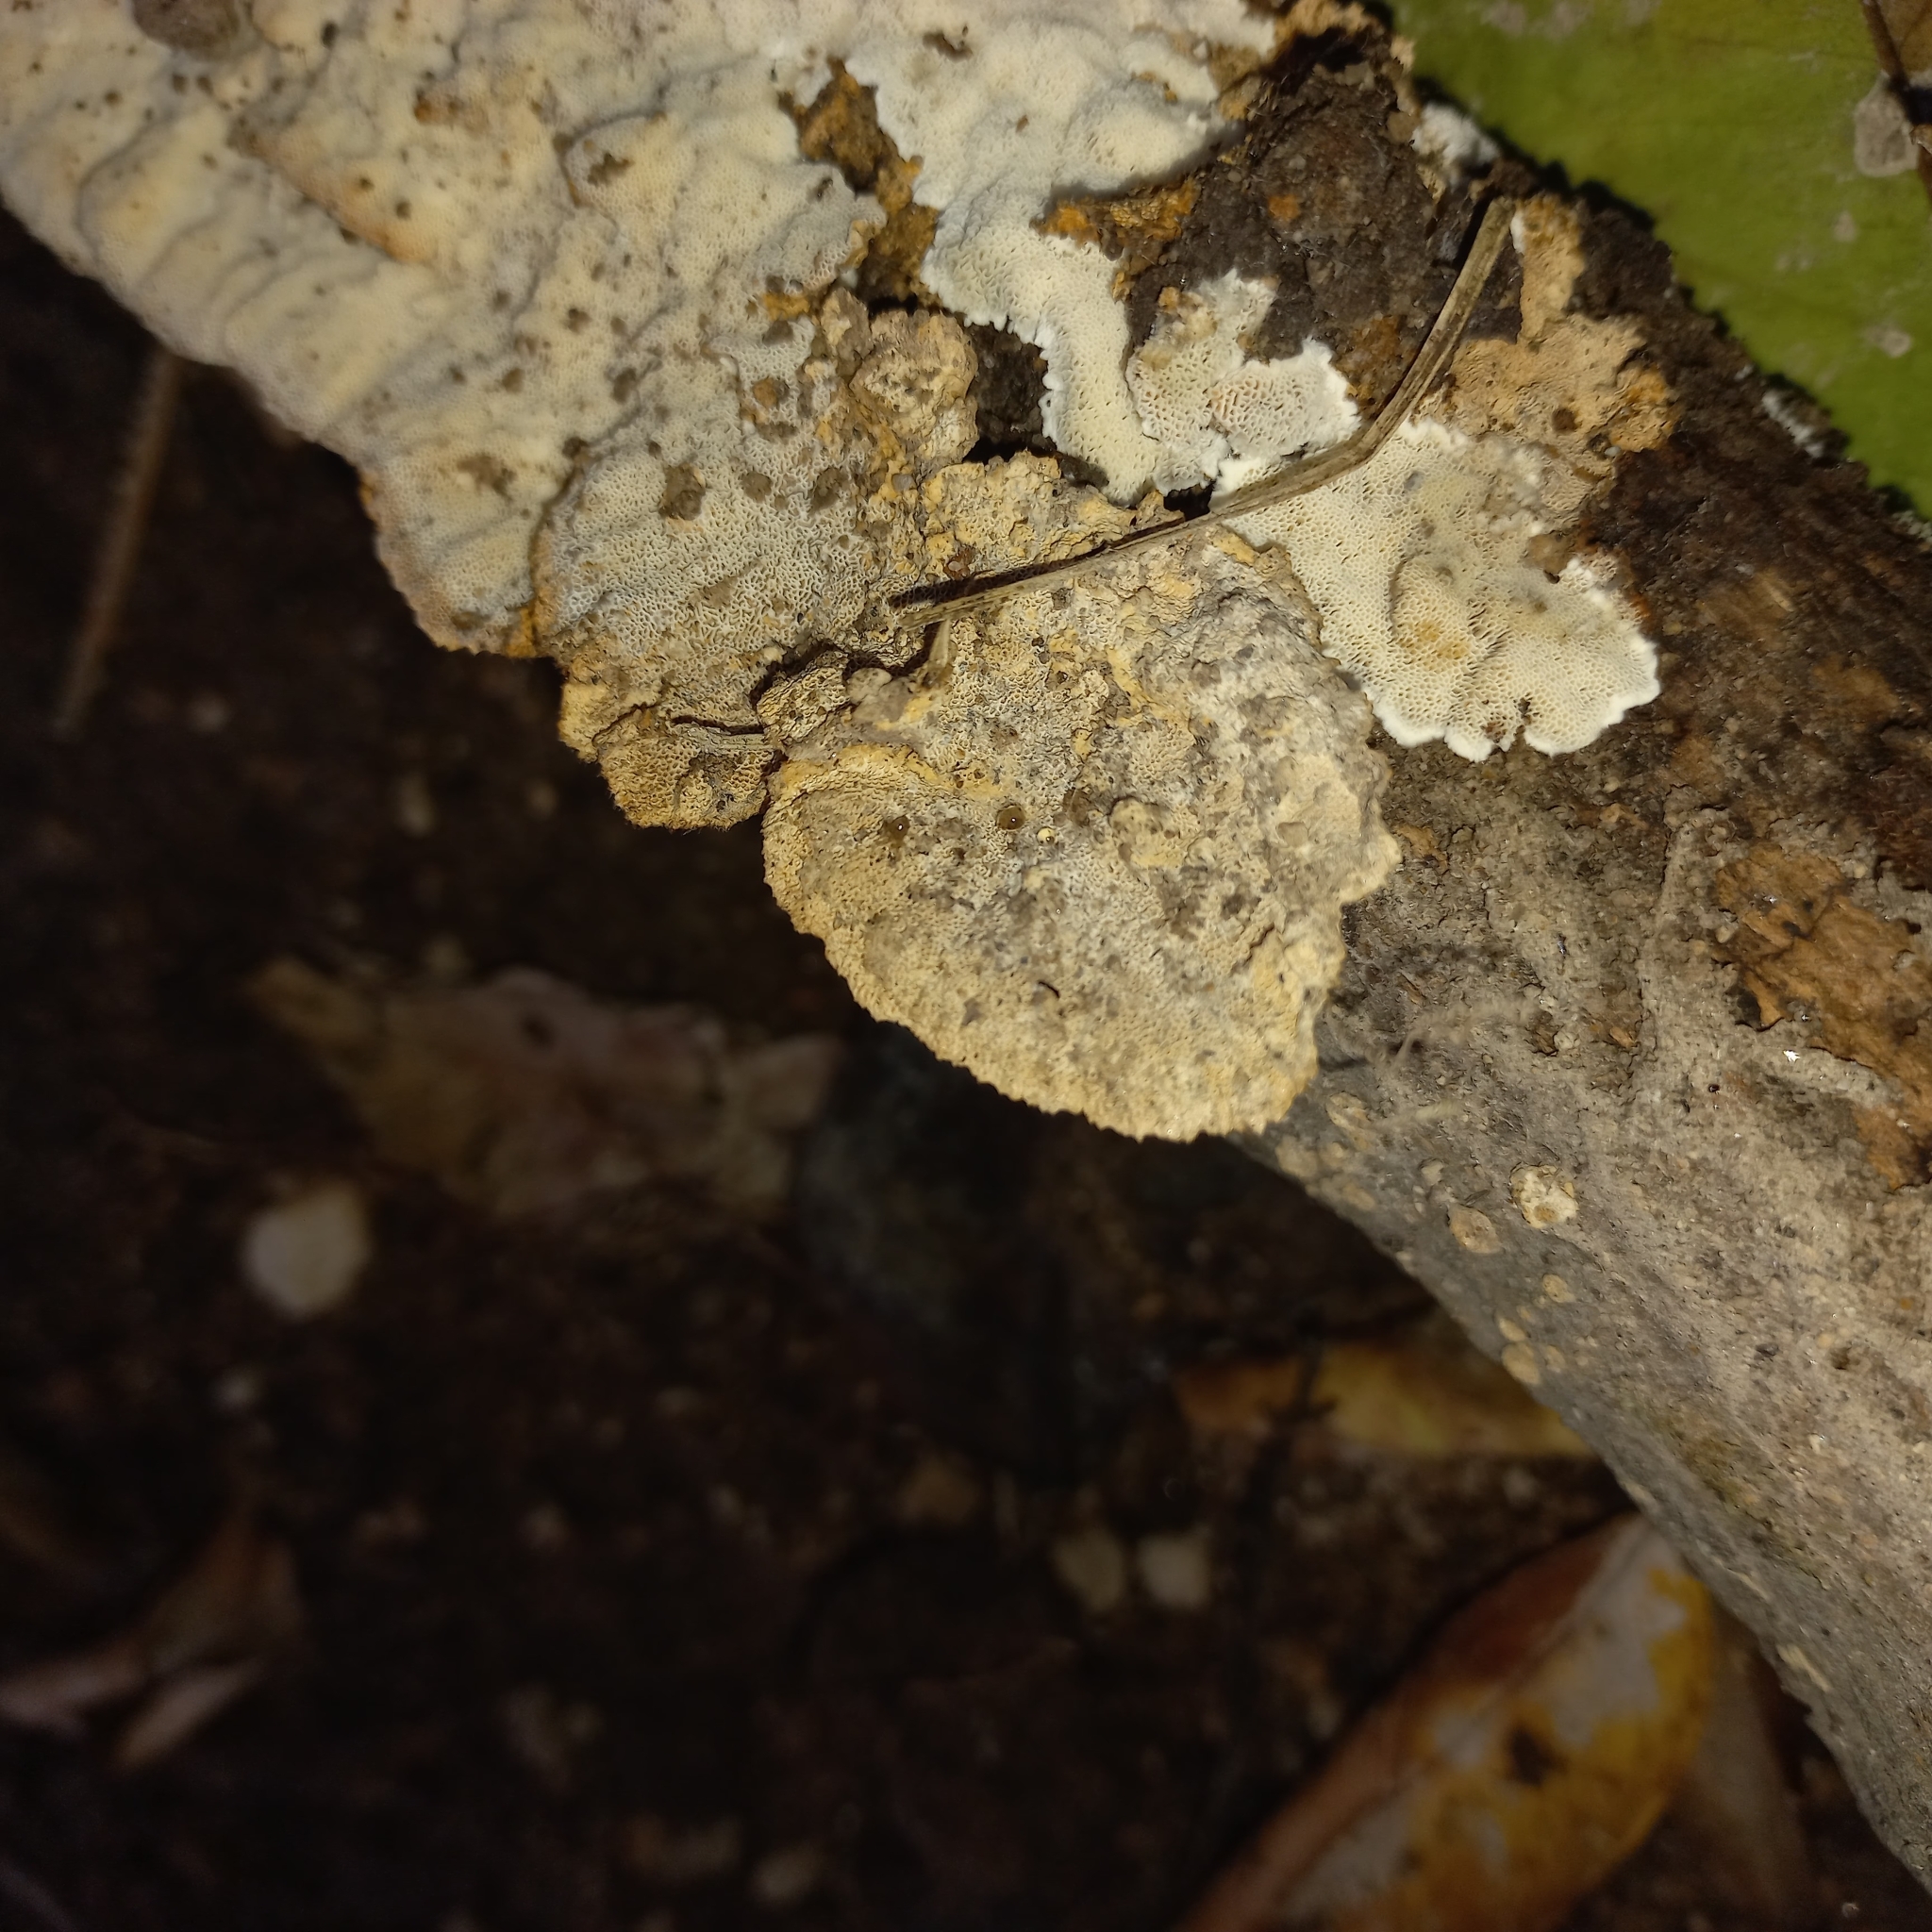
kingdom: Fungi
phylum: Basidiomycota
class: Agaricomycetes
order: Polyporales
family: Polyporaceae
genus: Podofomes
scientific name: Podofomes mollis
